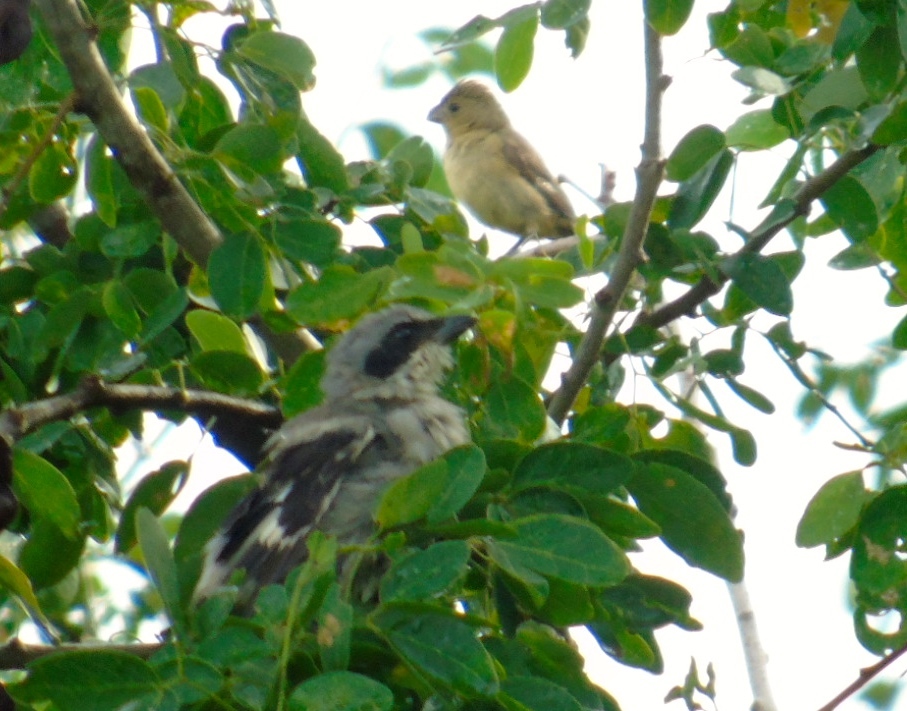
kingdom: Animalia
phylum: Chordata
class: Aves
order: Passeriformes
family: Thraupidae
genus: Sporophila
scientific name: Sporophila torqueola
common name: White-collared seedeater
